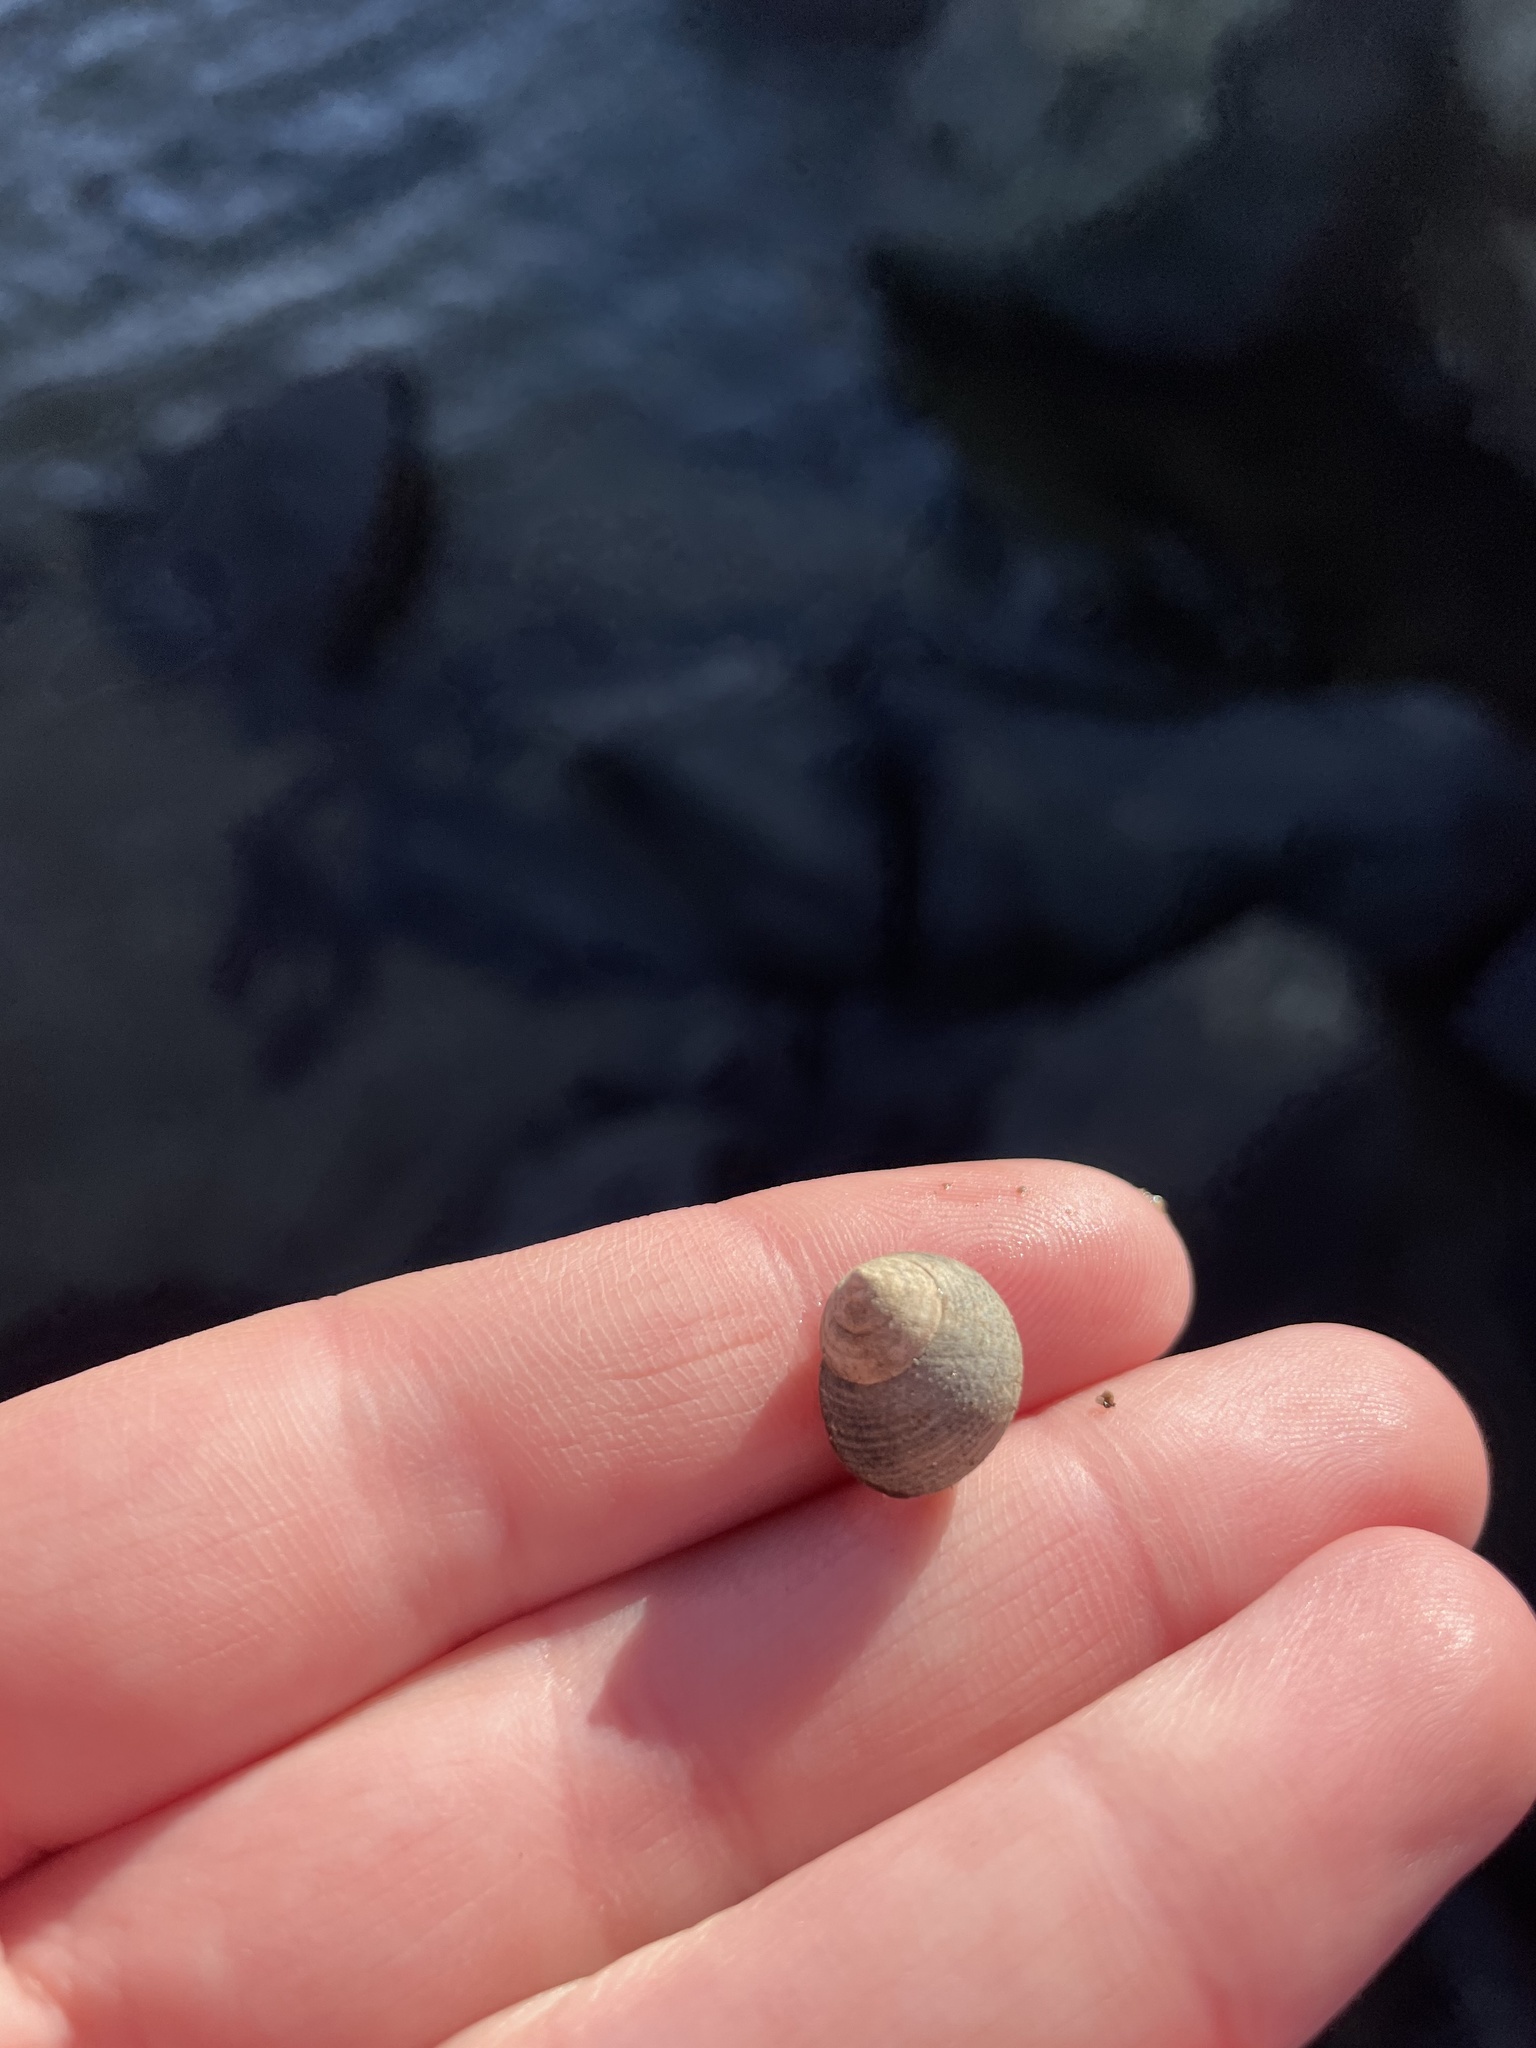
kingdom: Animalia
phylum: Mollusca
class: Gastropoda
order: Littorinimorpha
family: Littorinidae
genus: Littorina
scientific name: Littorina littorea
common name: Common periwinkle
